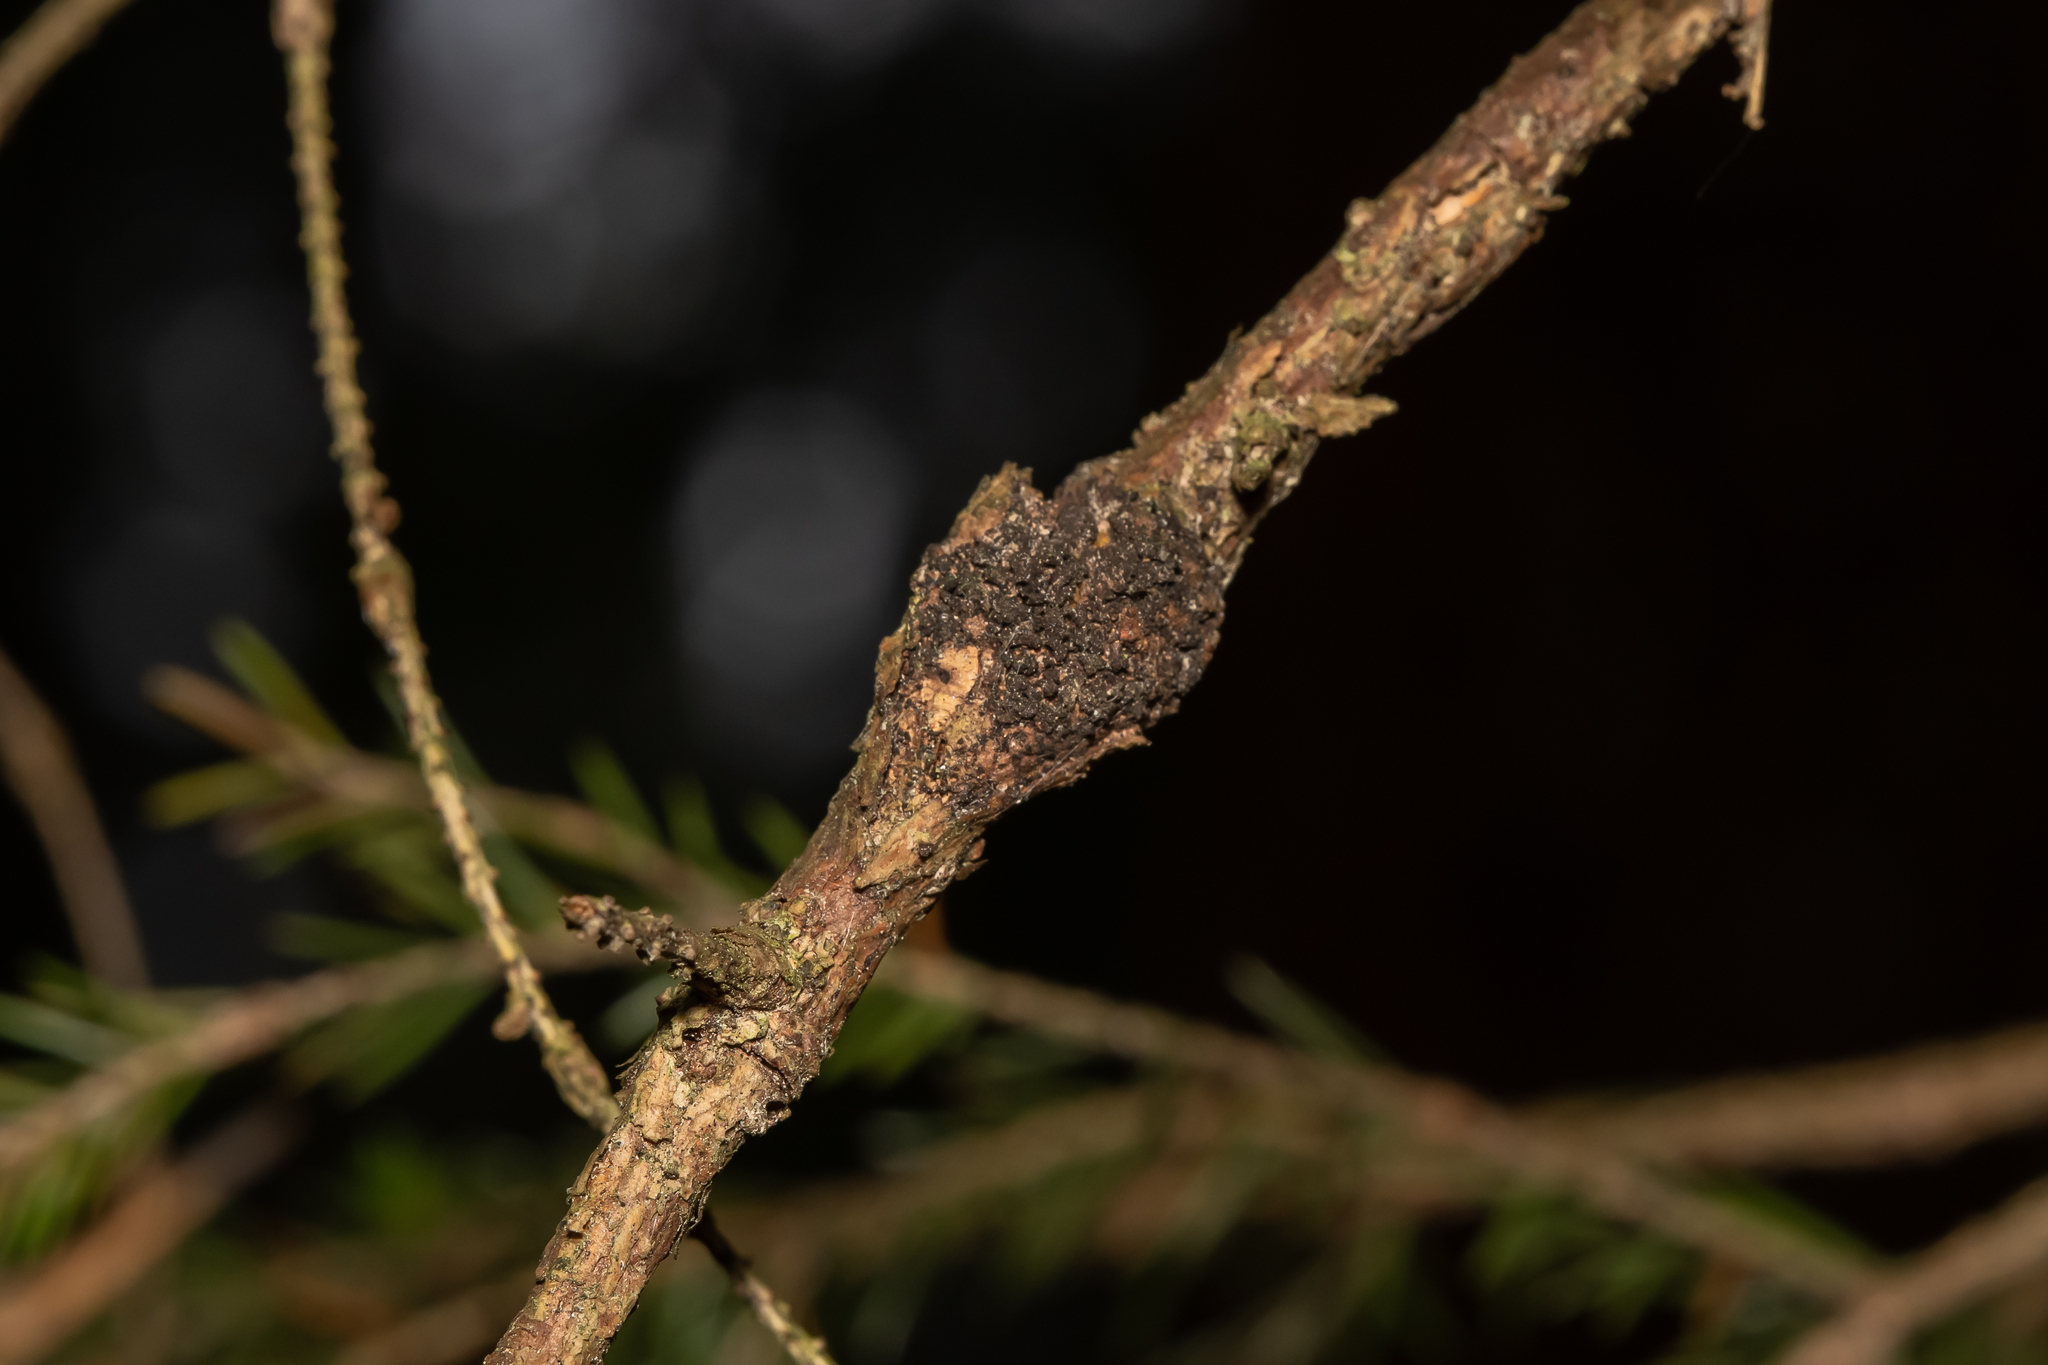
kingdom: Bacteria
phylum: Proteobacteria
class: Alphaproteobacteria
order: Rhizobiales
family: Rhizobiaceae
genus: Rhizobium
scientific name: Rhizobium Agrobacterium radiobacter
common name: Bacterial crown gall
